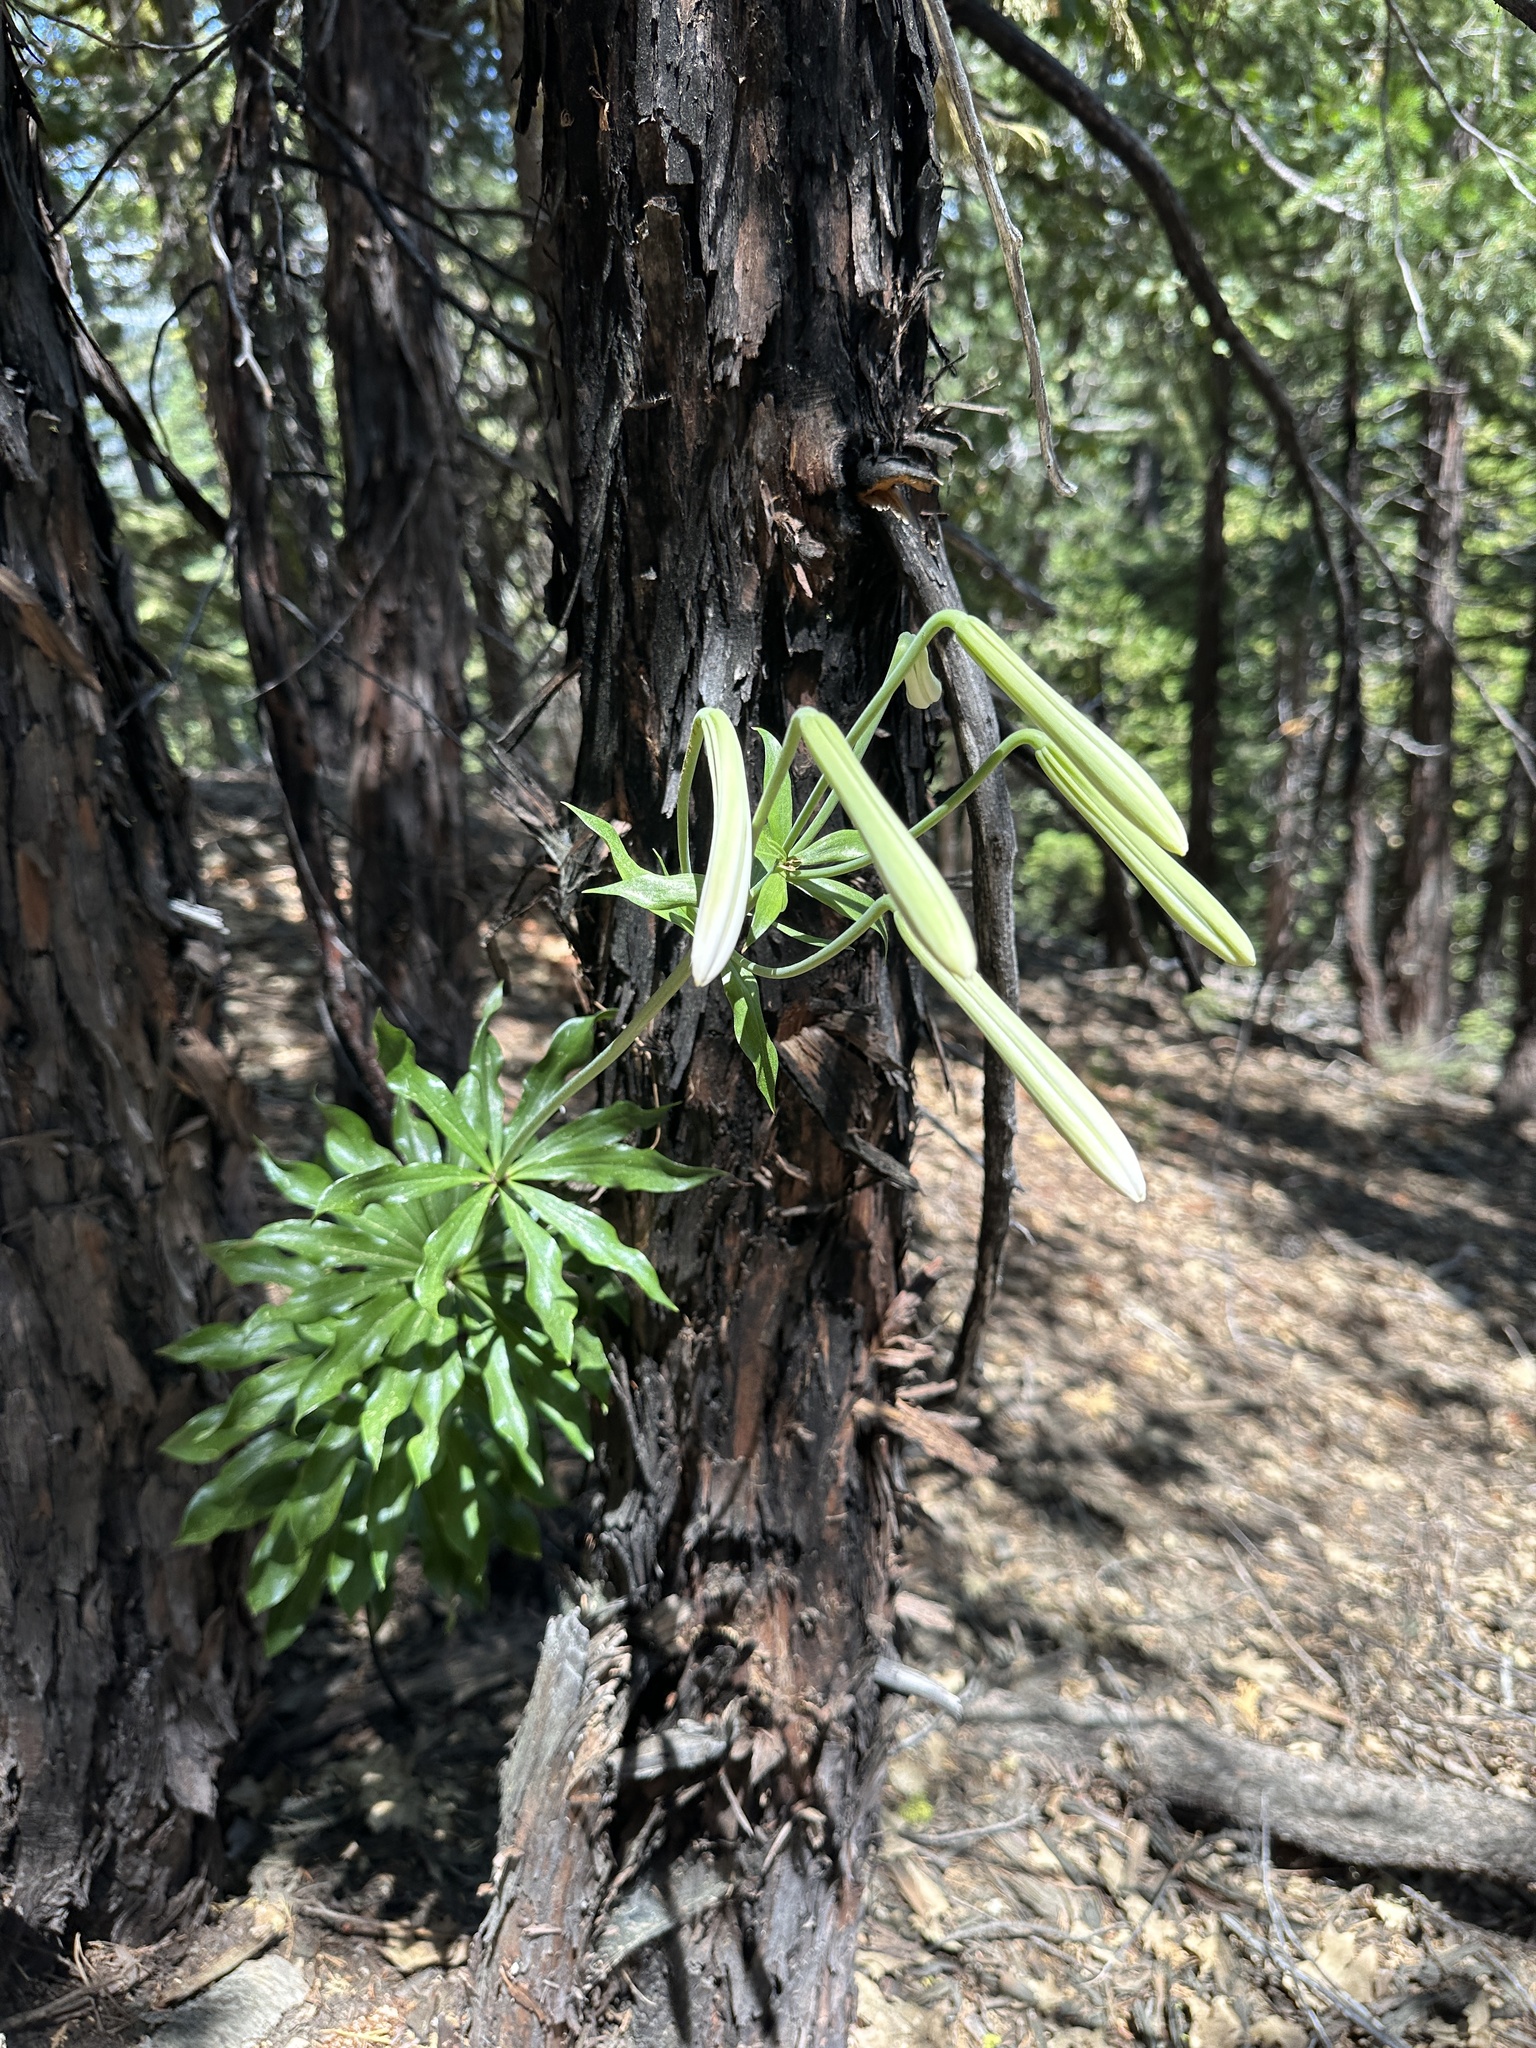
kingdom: Plantae
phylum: Tracheophyta
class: Liliopsida
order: Liliales
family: Liliaceae
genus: Lilium
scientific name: Lilium washingtonianum
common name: Washington lily
